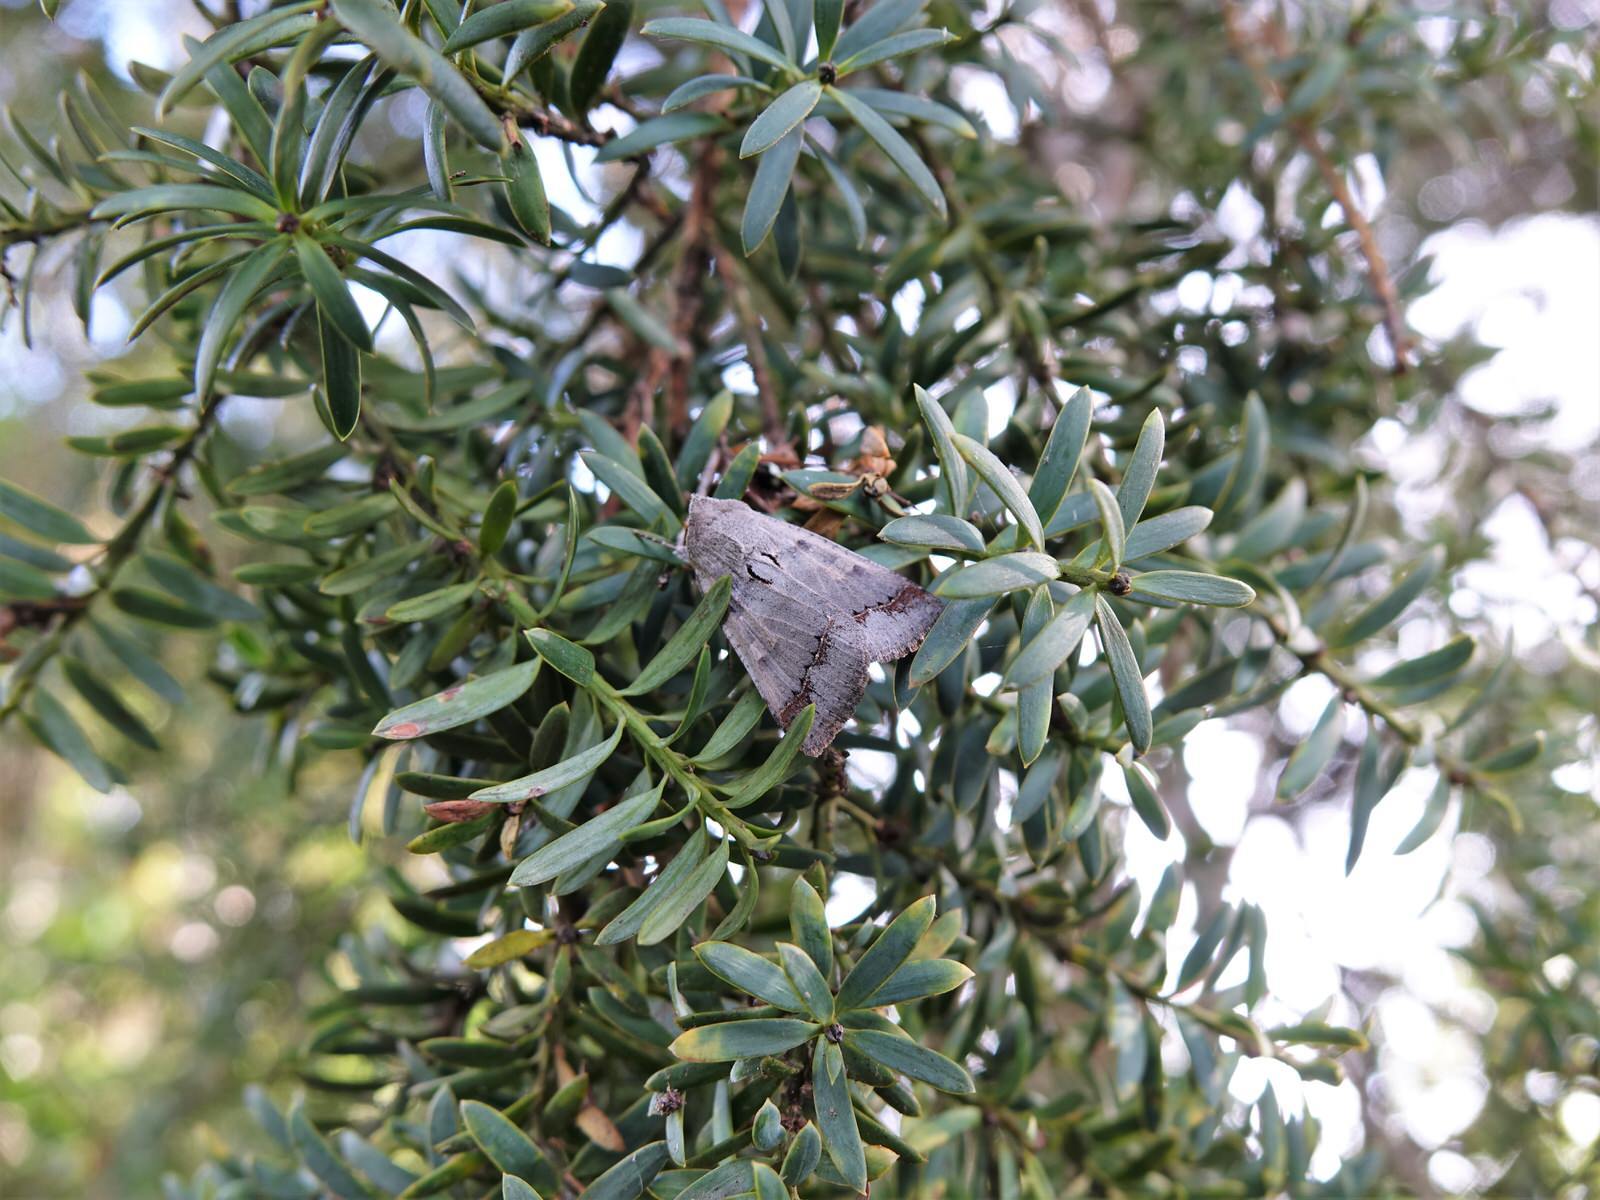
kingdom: Animalia
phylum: Arthropoda
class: Insecta
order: Lepidoptera
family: Erebidae
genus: Pantydia
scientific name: Pantydia sparsa
